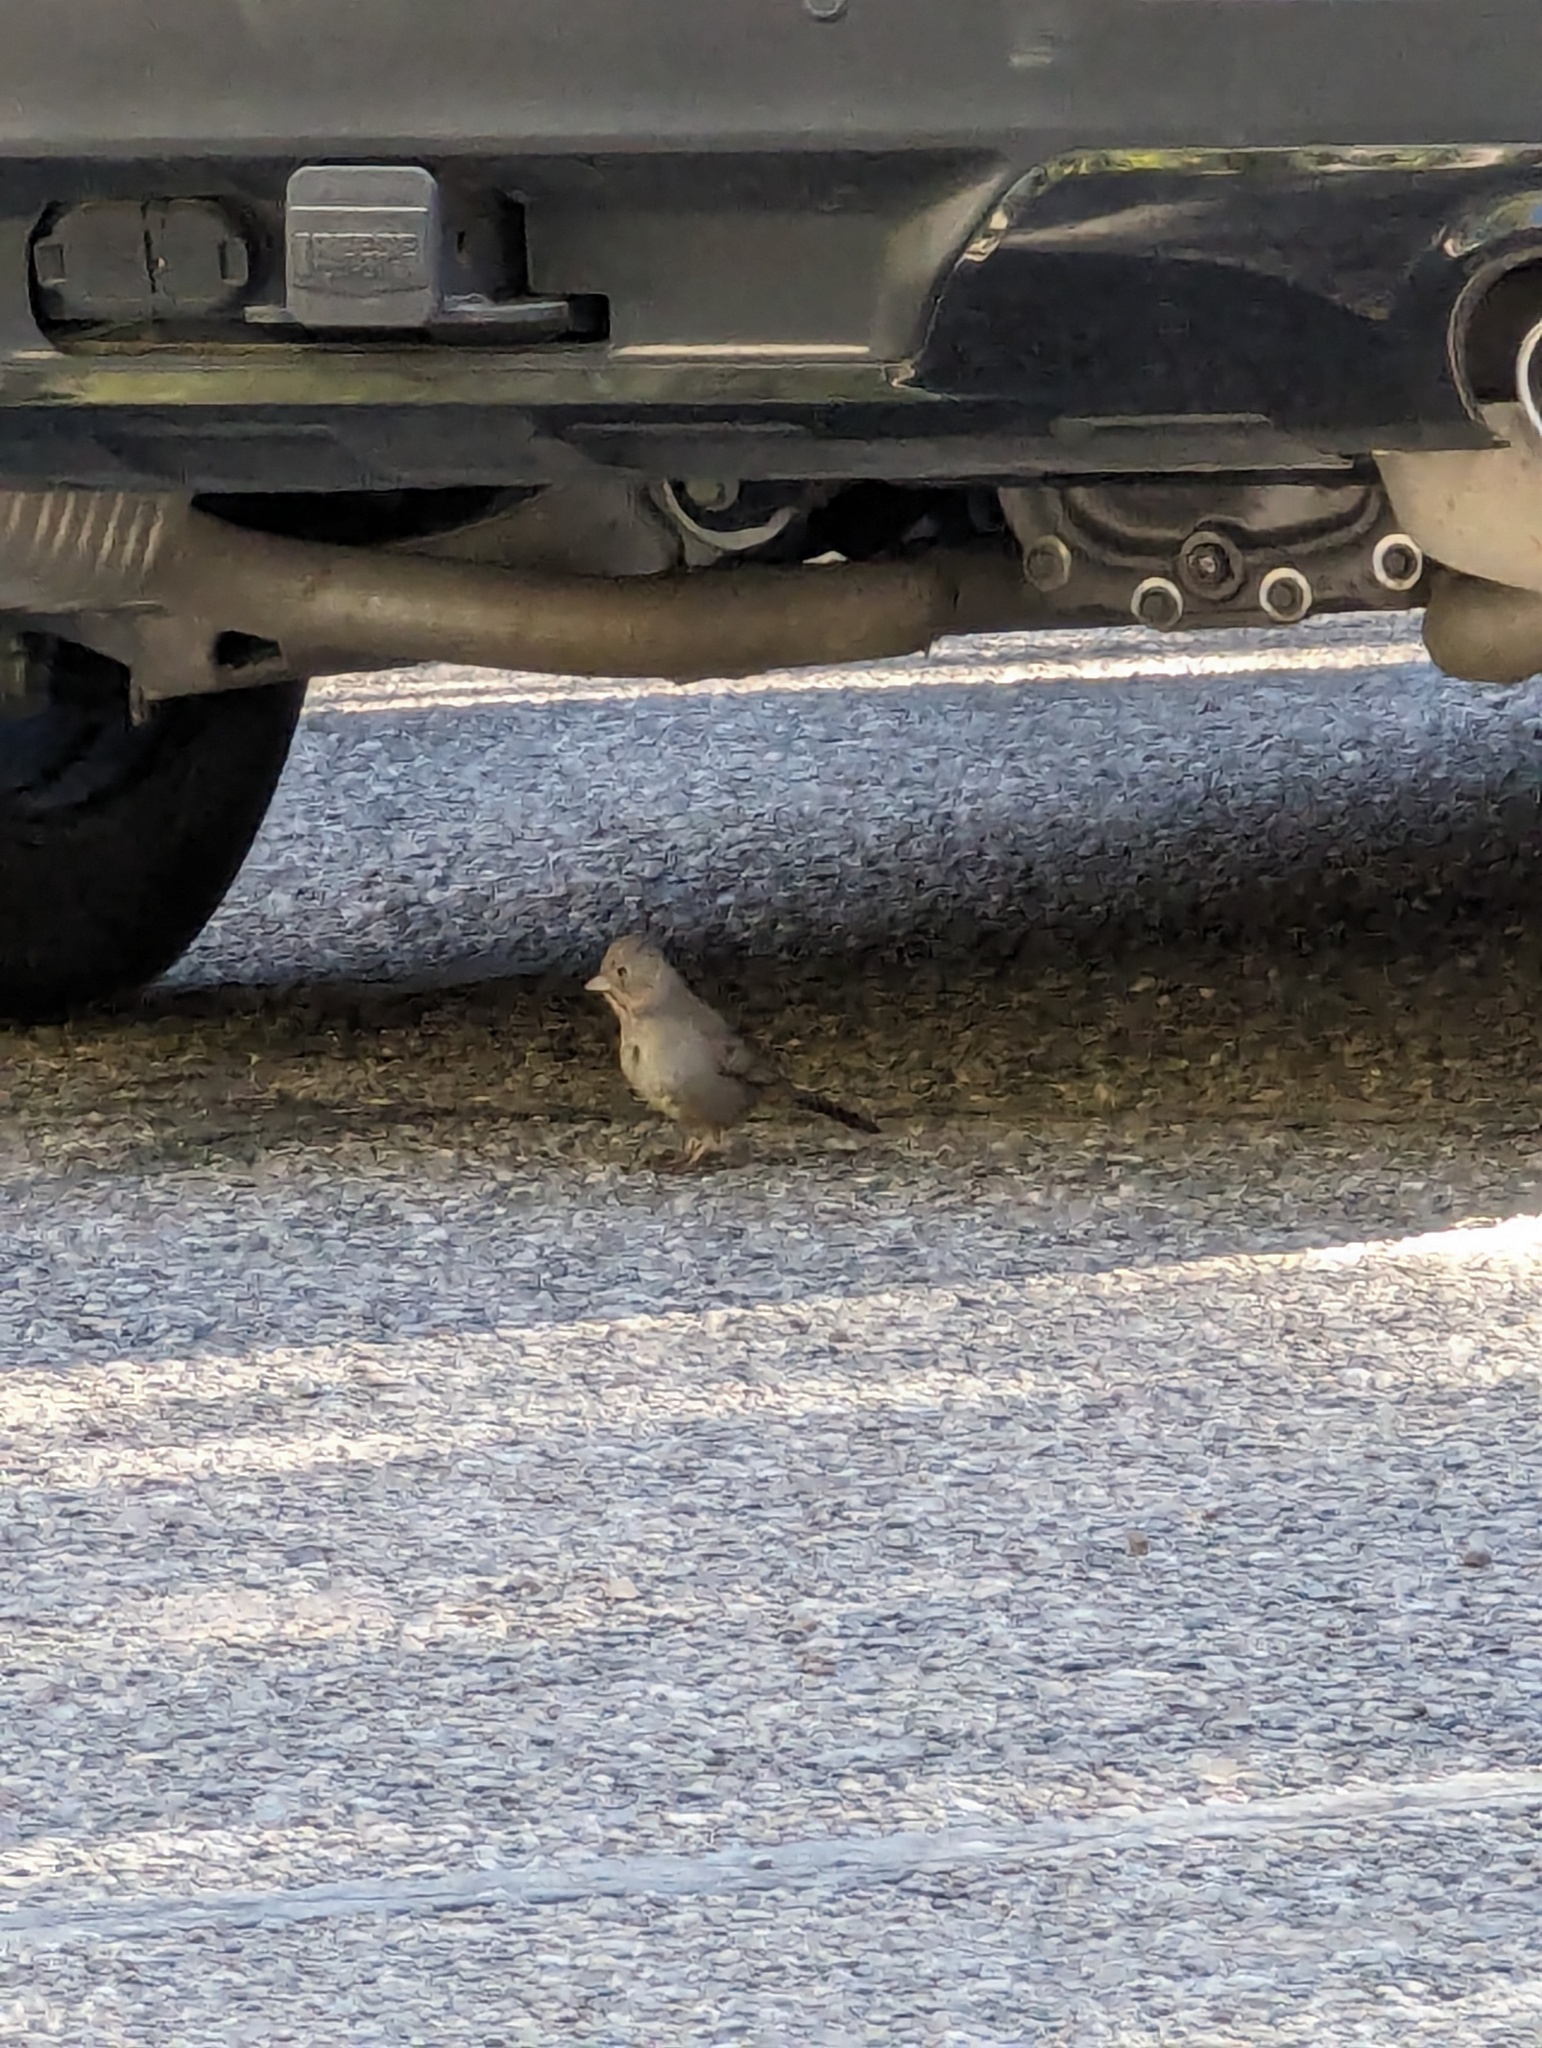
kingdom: Animalia
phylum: Chordata
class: Aves
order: Passeriformes
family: Passerellidae
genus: Melozone
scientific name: Melozone fusca
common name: Canyon towhee
